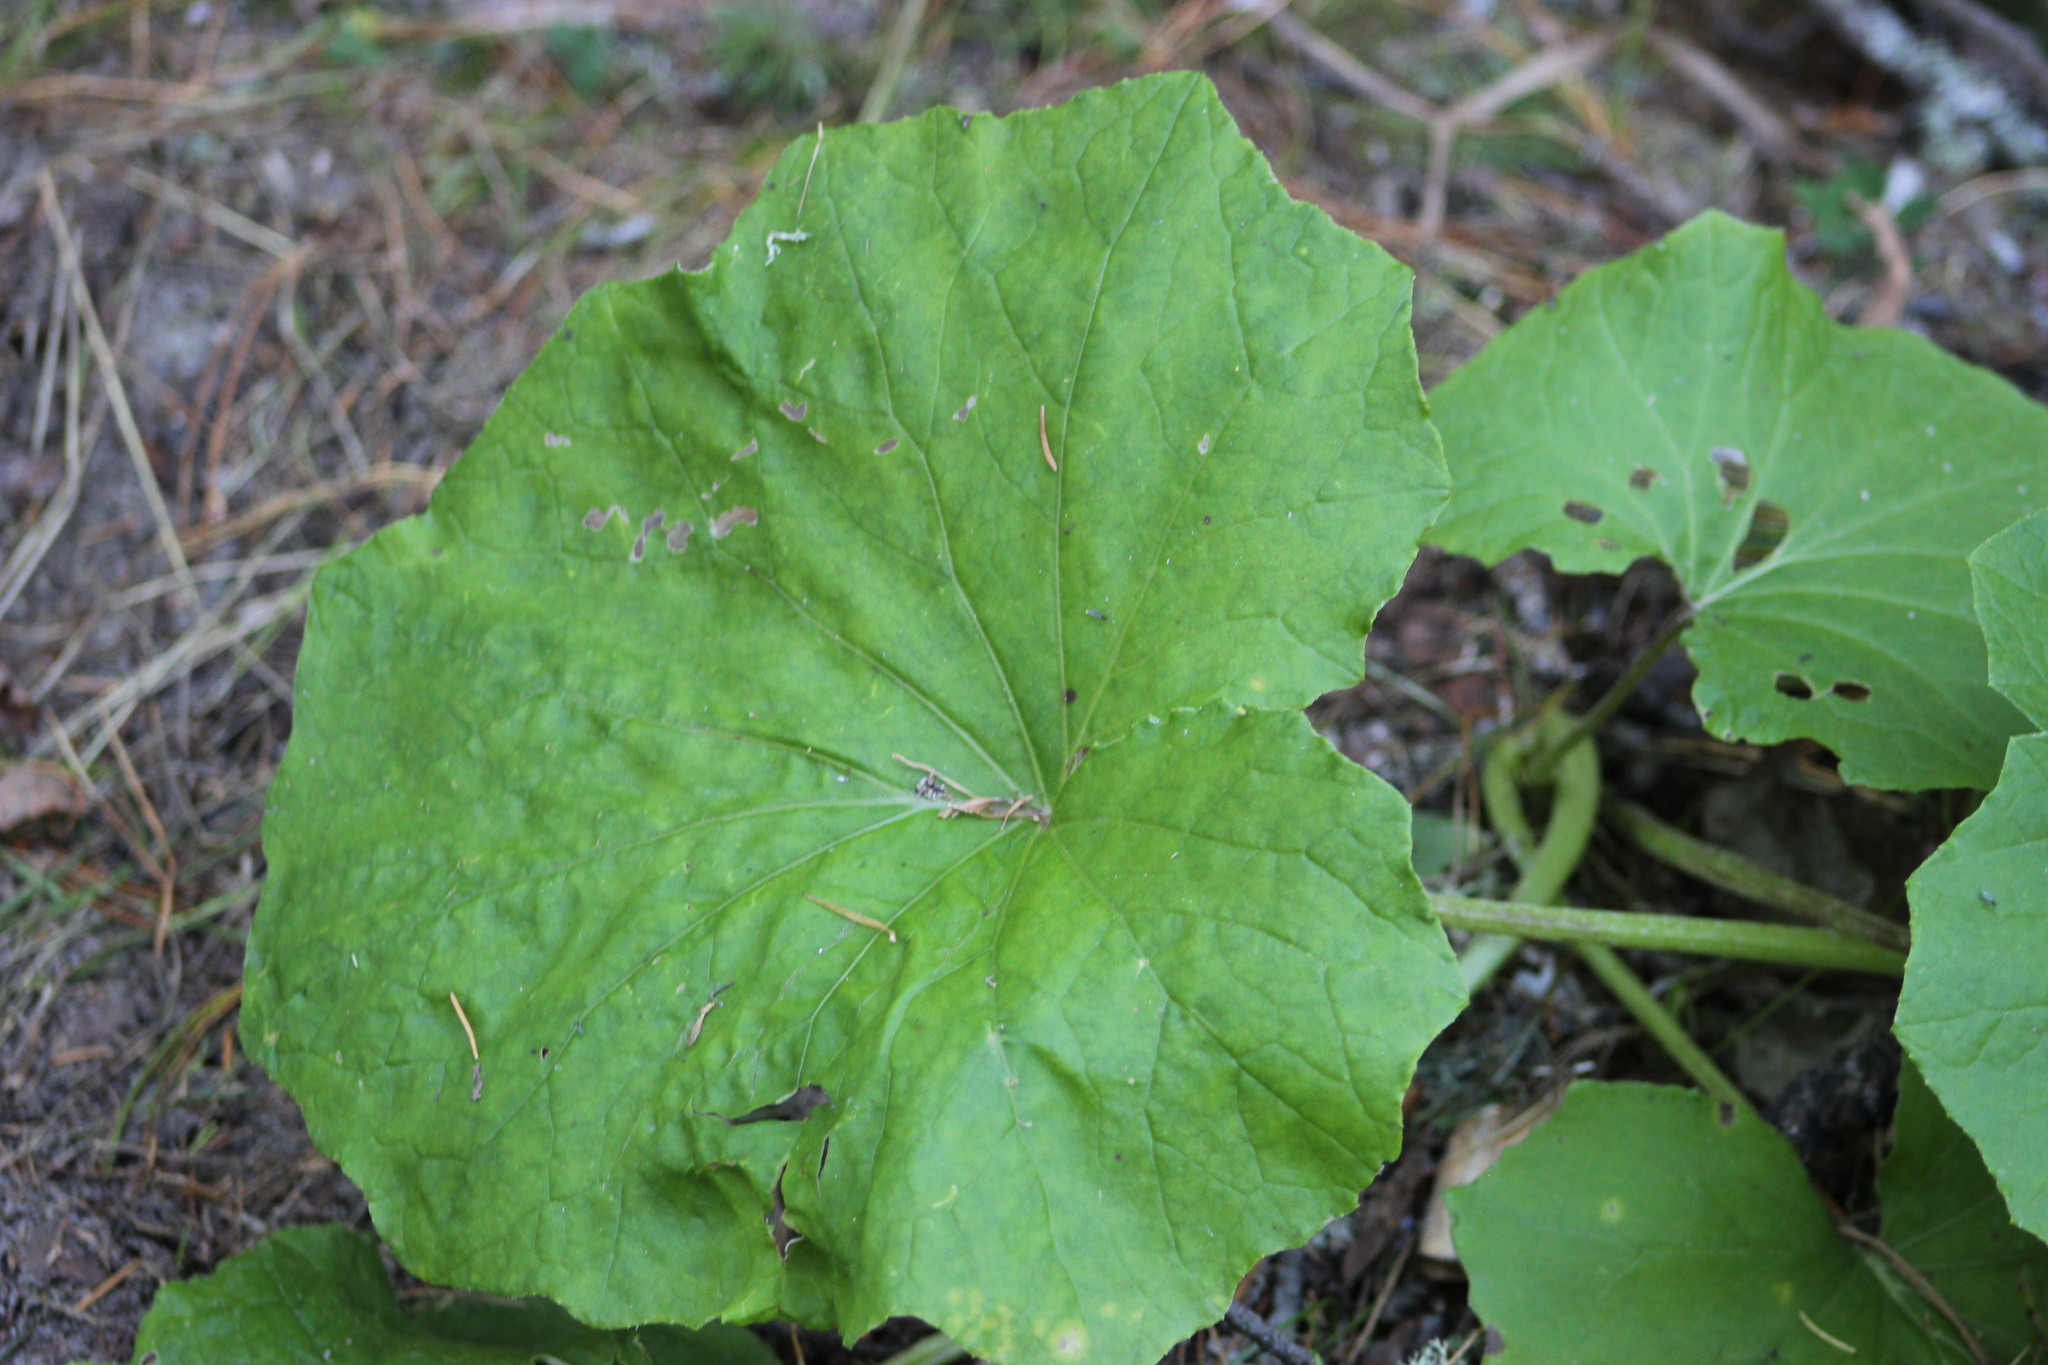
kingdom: Plantae
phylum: Tracheophyta
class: Magnoliopsida
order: Asterales
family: Asteraceae
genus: Tussilago
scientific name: Tussilago farfara
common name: Coltsfoot
